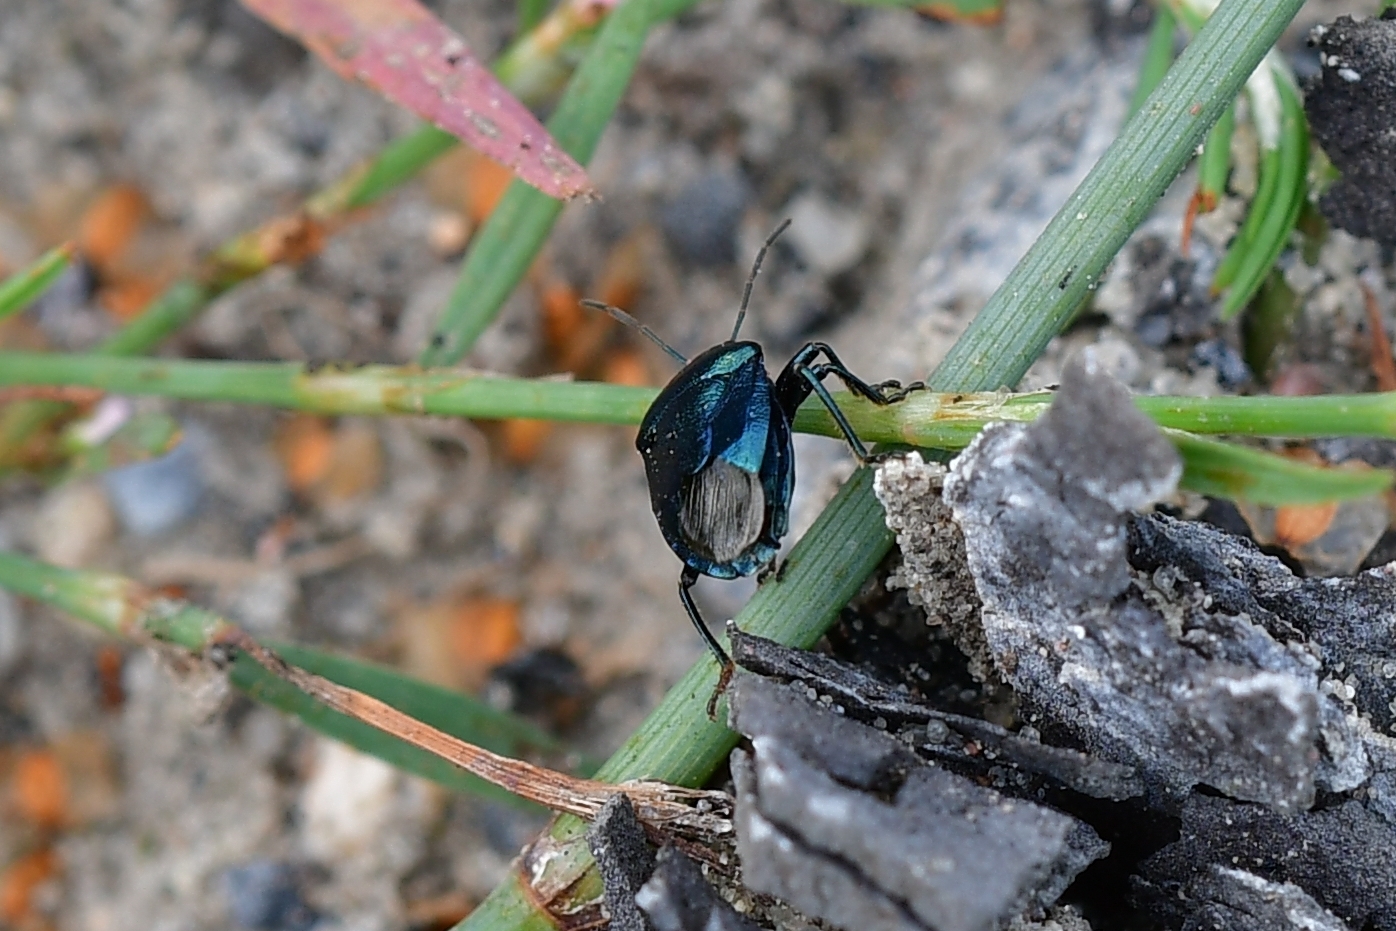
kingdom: Animalia
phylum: Arthropoda
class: Insecta
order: Hemiptera
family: Pentatomidae
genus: Zicrona
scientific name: Zicrona caerulea
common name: Blue shieldbug
